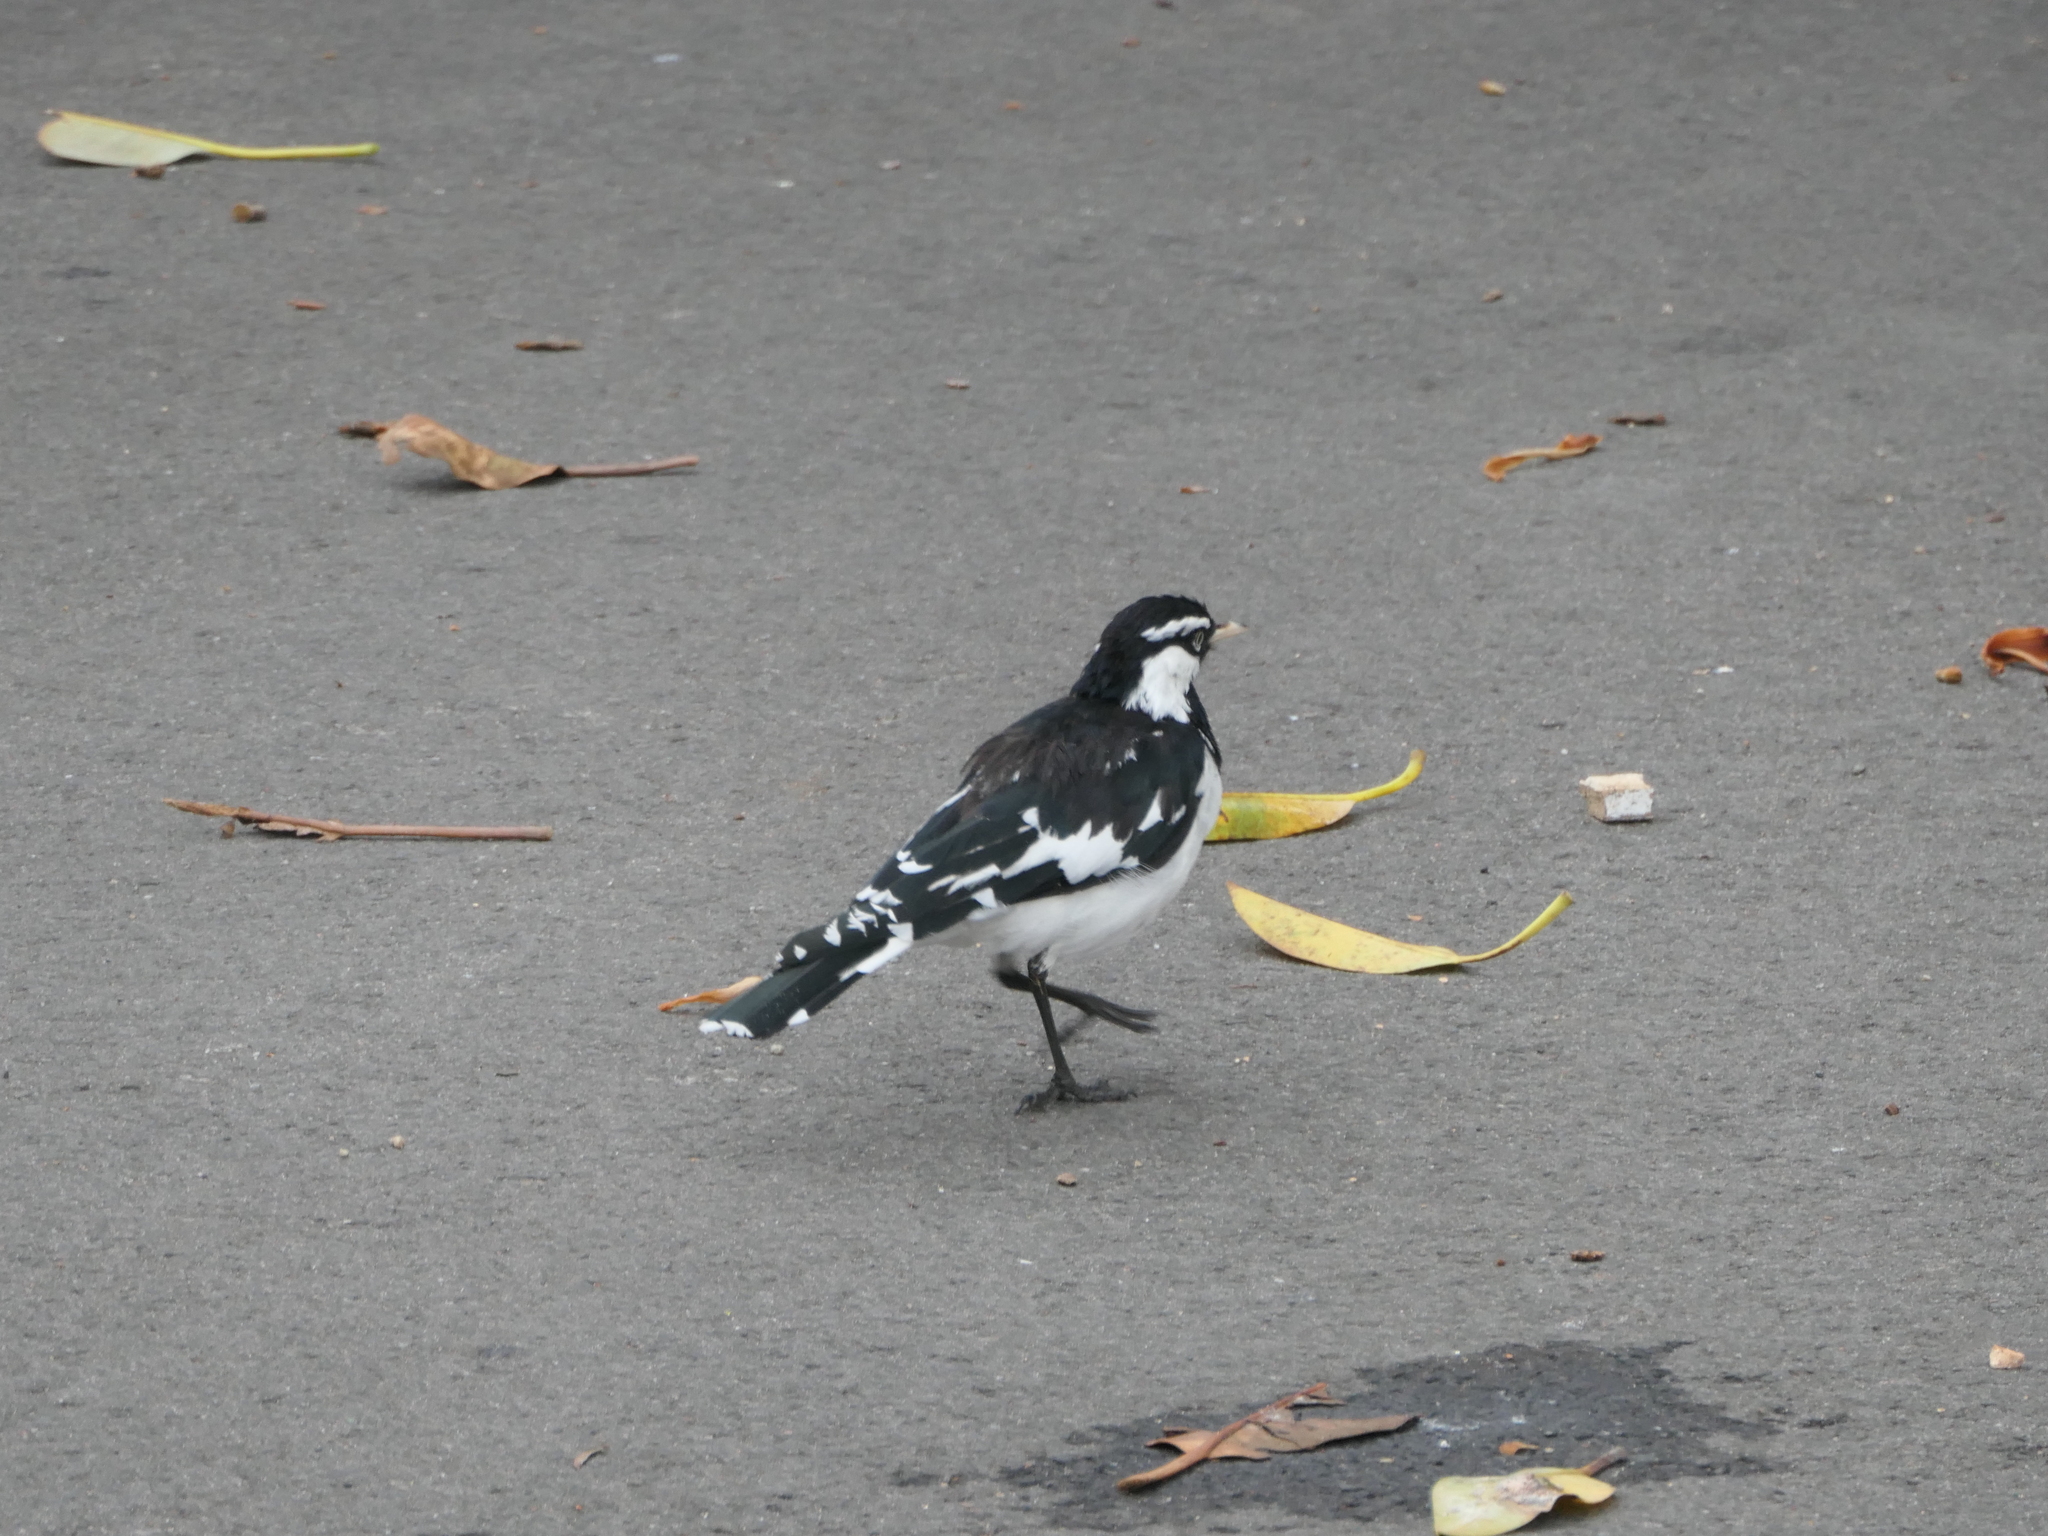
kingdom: Animalia
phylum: Chordata
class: Aves
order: Passeriformes
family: Monarchidae
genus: Grallina
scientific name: Grallina cyanoleuca
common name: Magpie-lark
